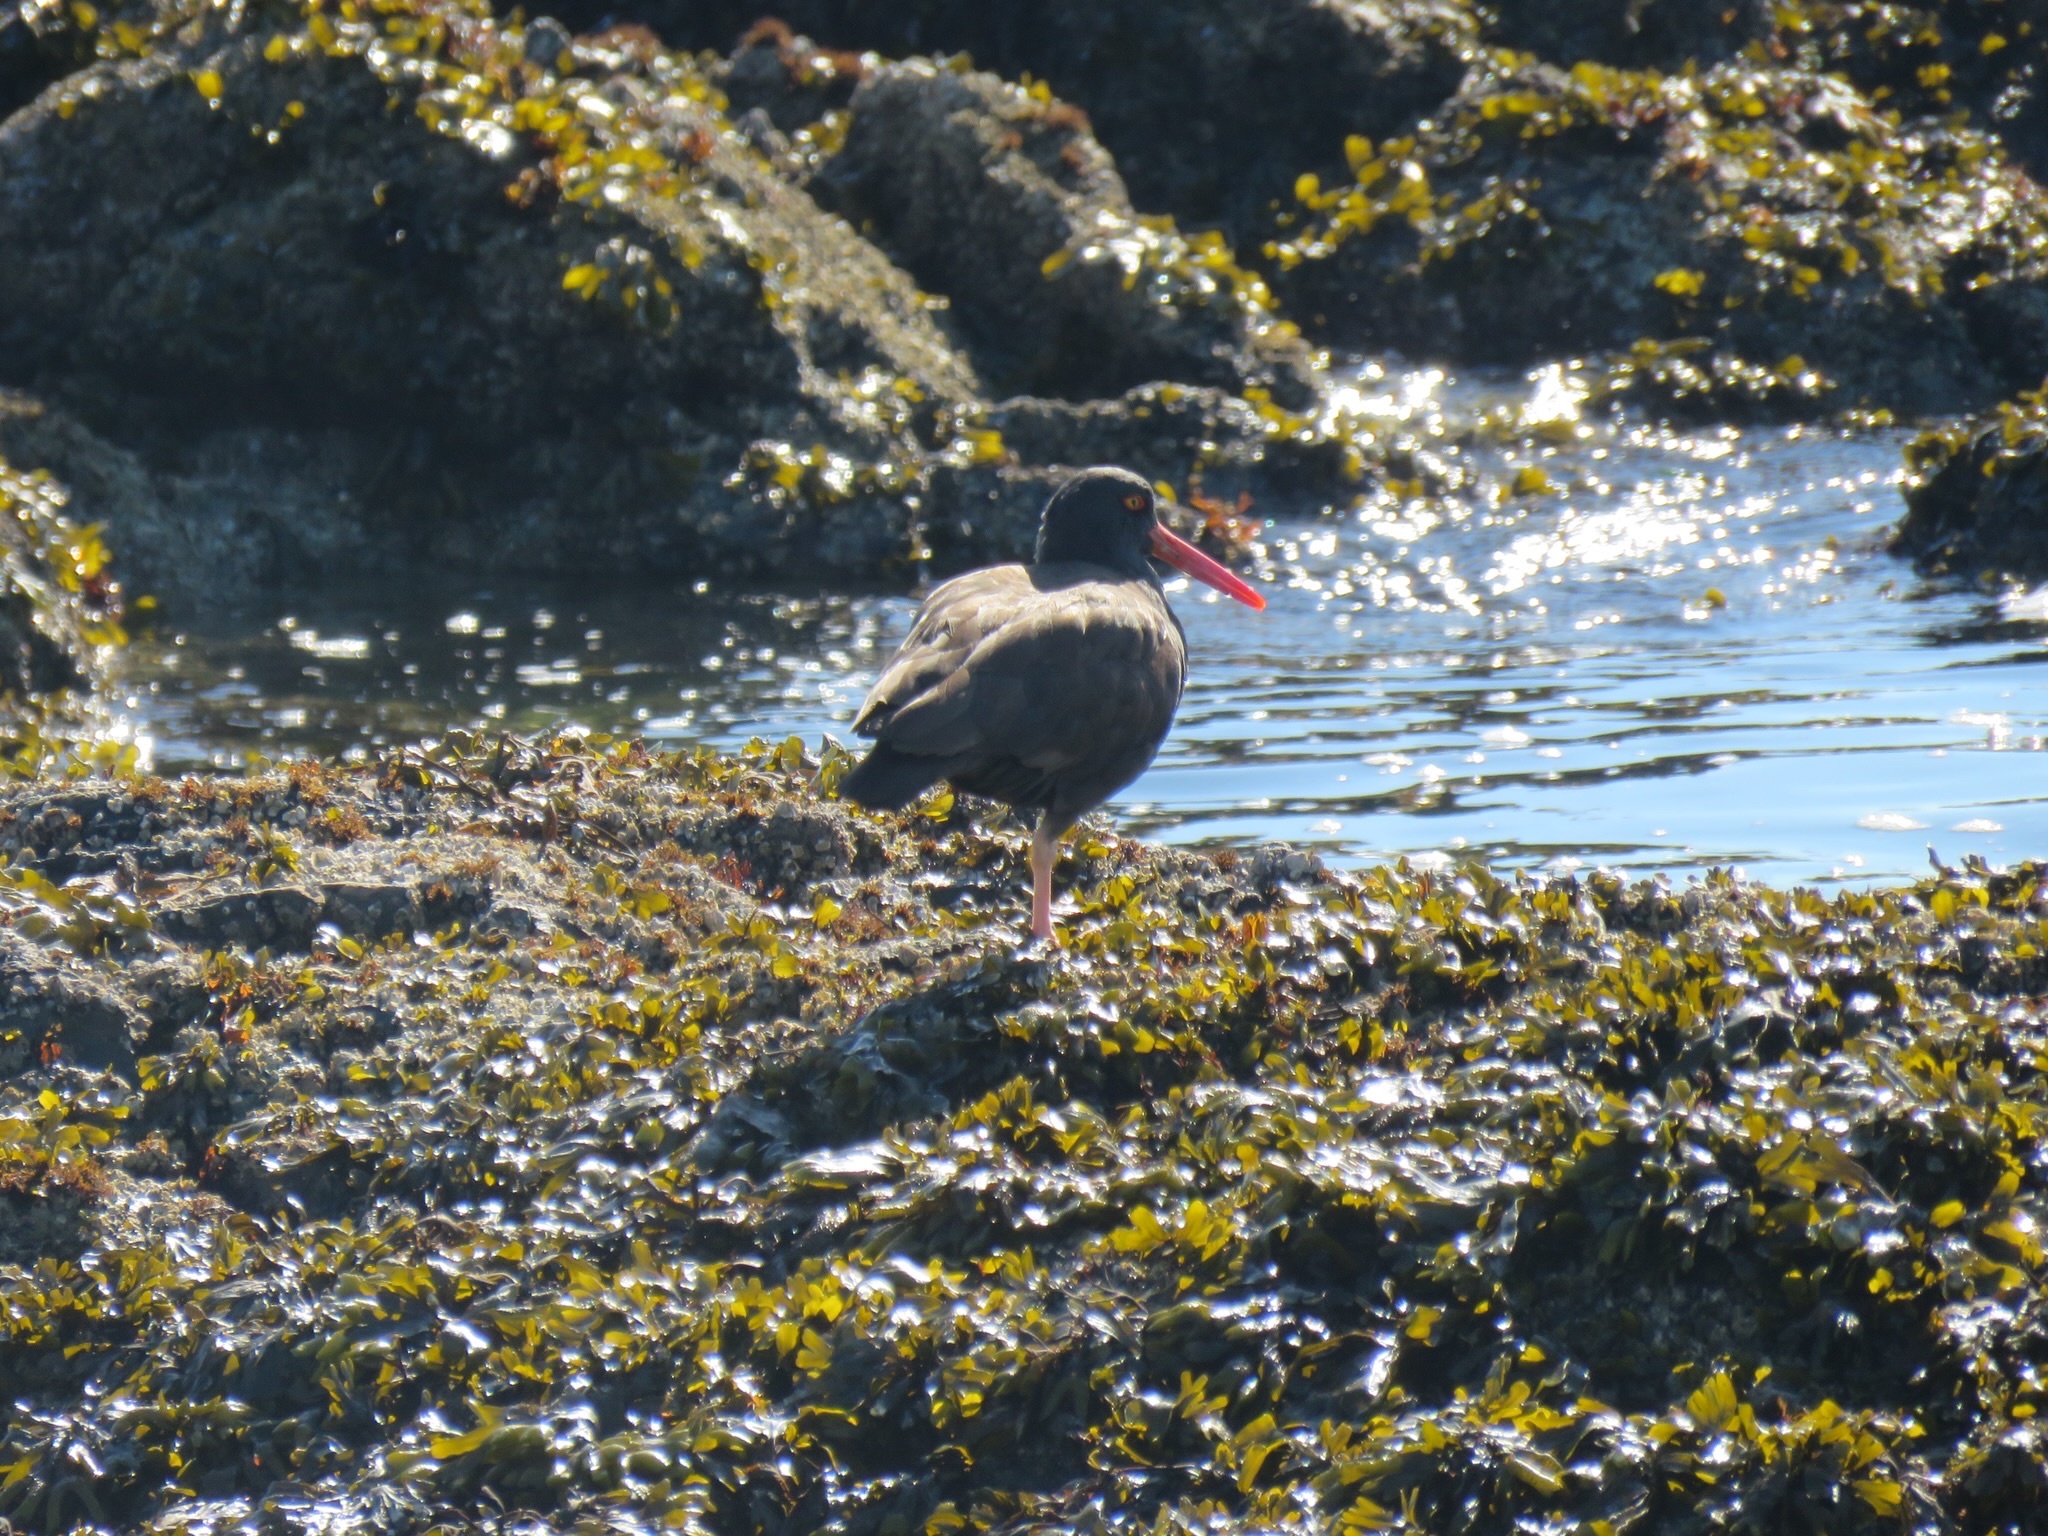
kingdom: Animalia
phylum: Chordata
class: Aves
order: Charadriiformes
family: Haematopodidae
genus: Haematopus
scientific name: Haematopus bachmani
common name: Black oystercatcher
